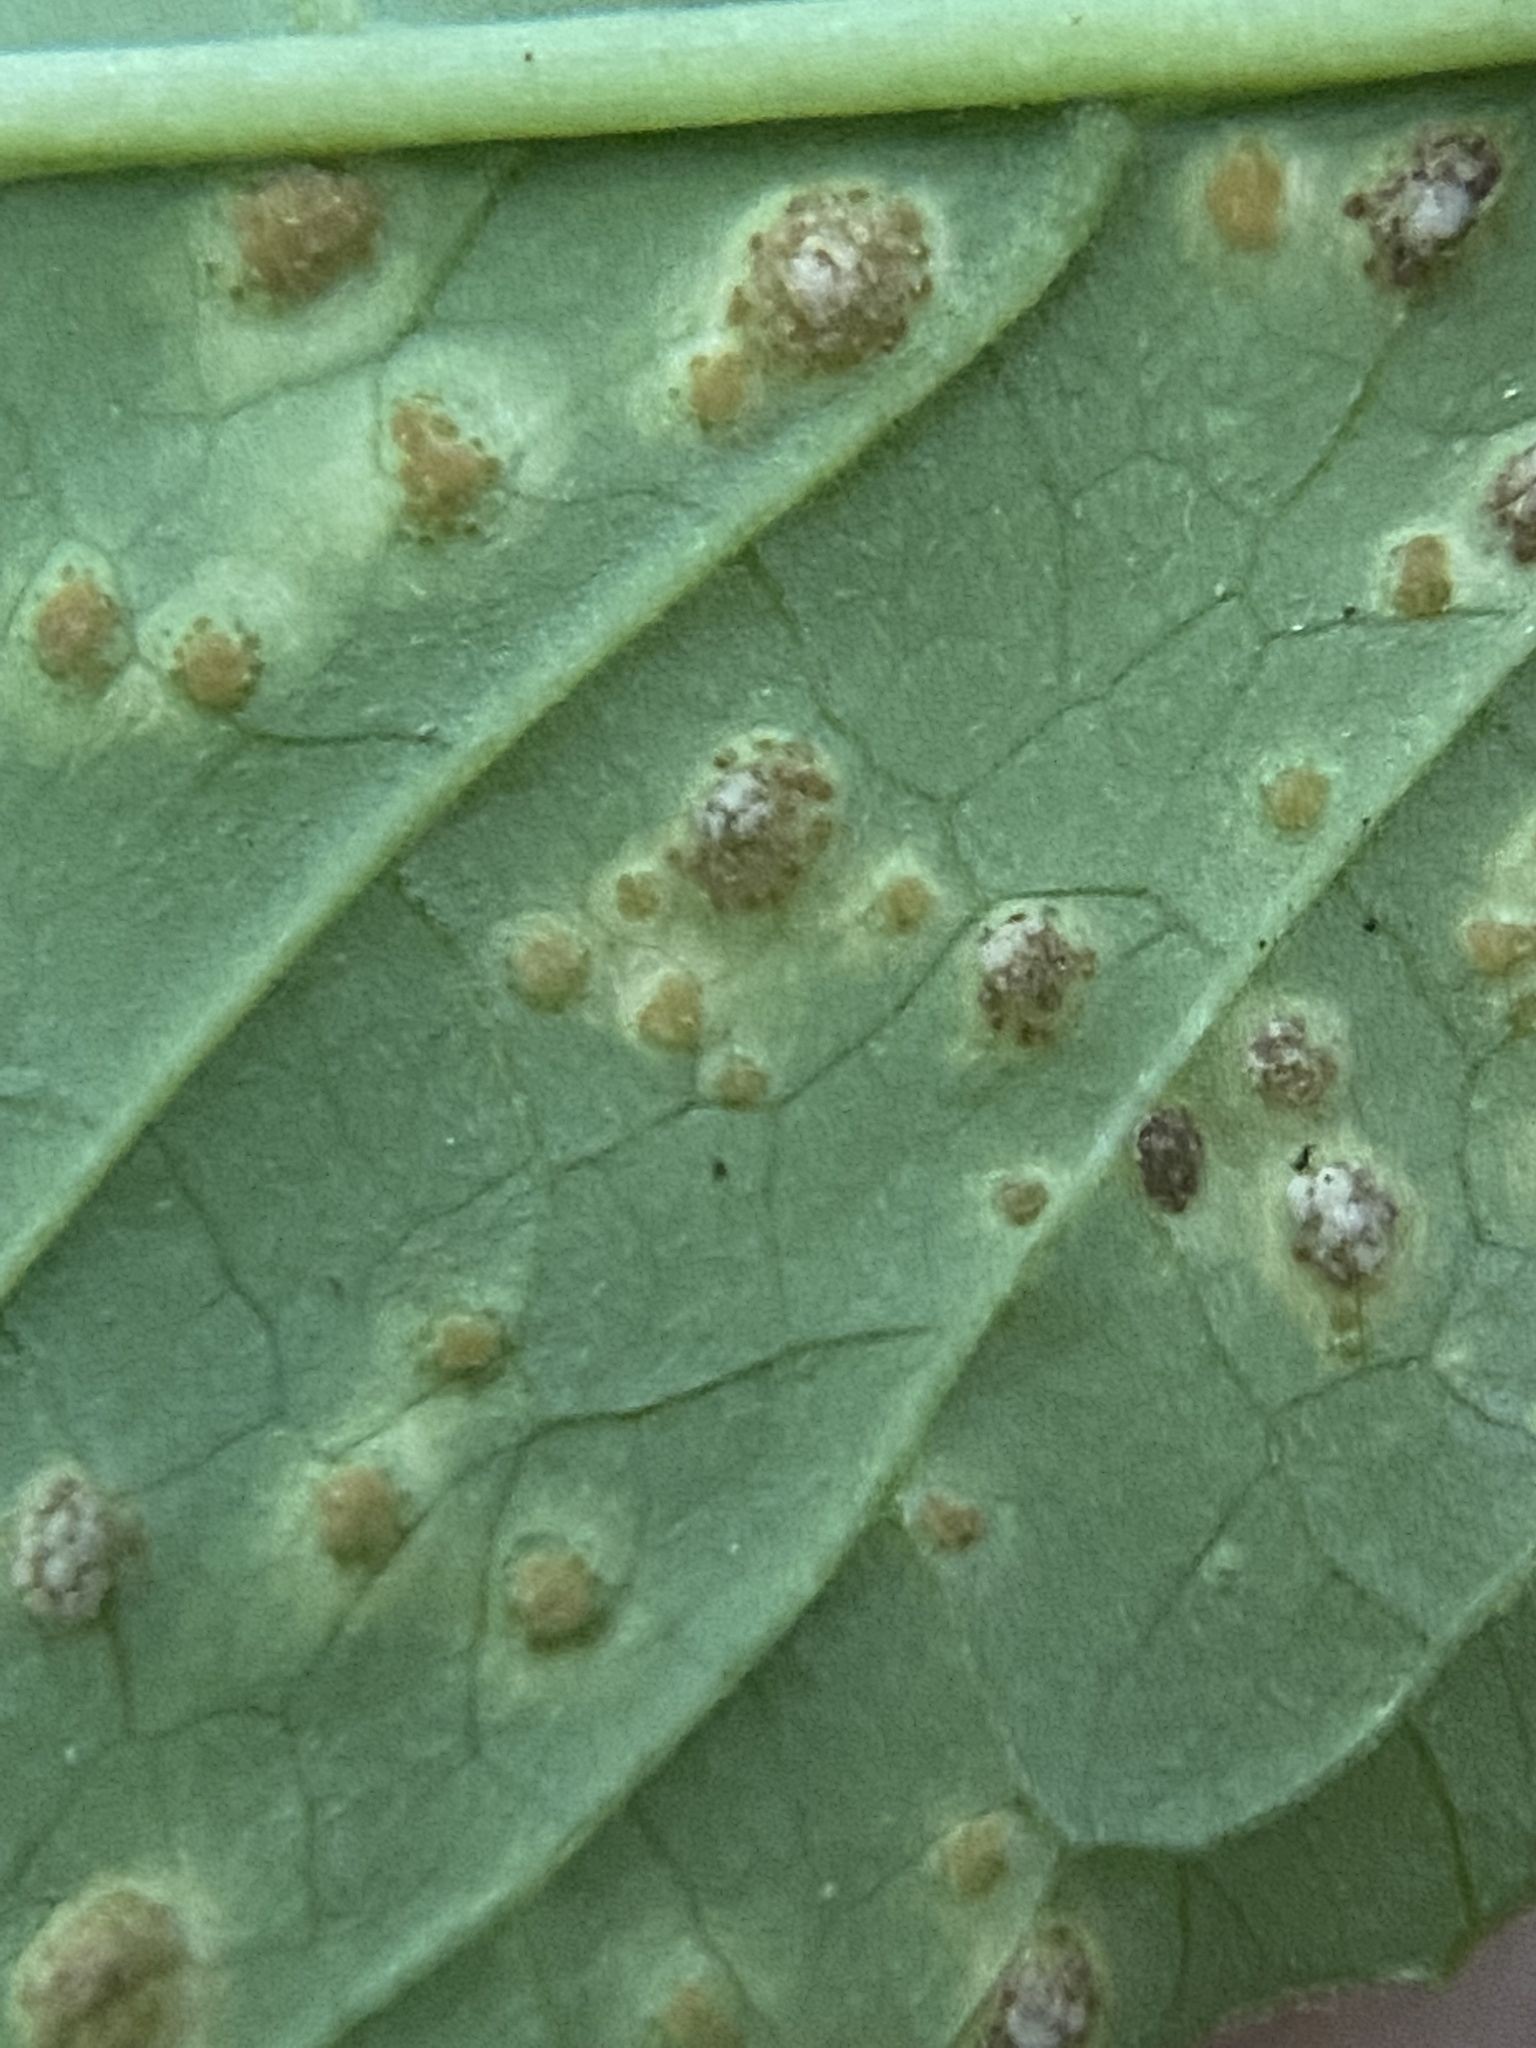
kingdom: Fungi
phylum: Basidiomycota
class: Pucciniomycetes
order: Pucciniales
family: Pucciniaceae
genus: Puccinia
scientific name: Puccinia circaeae
